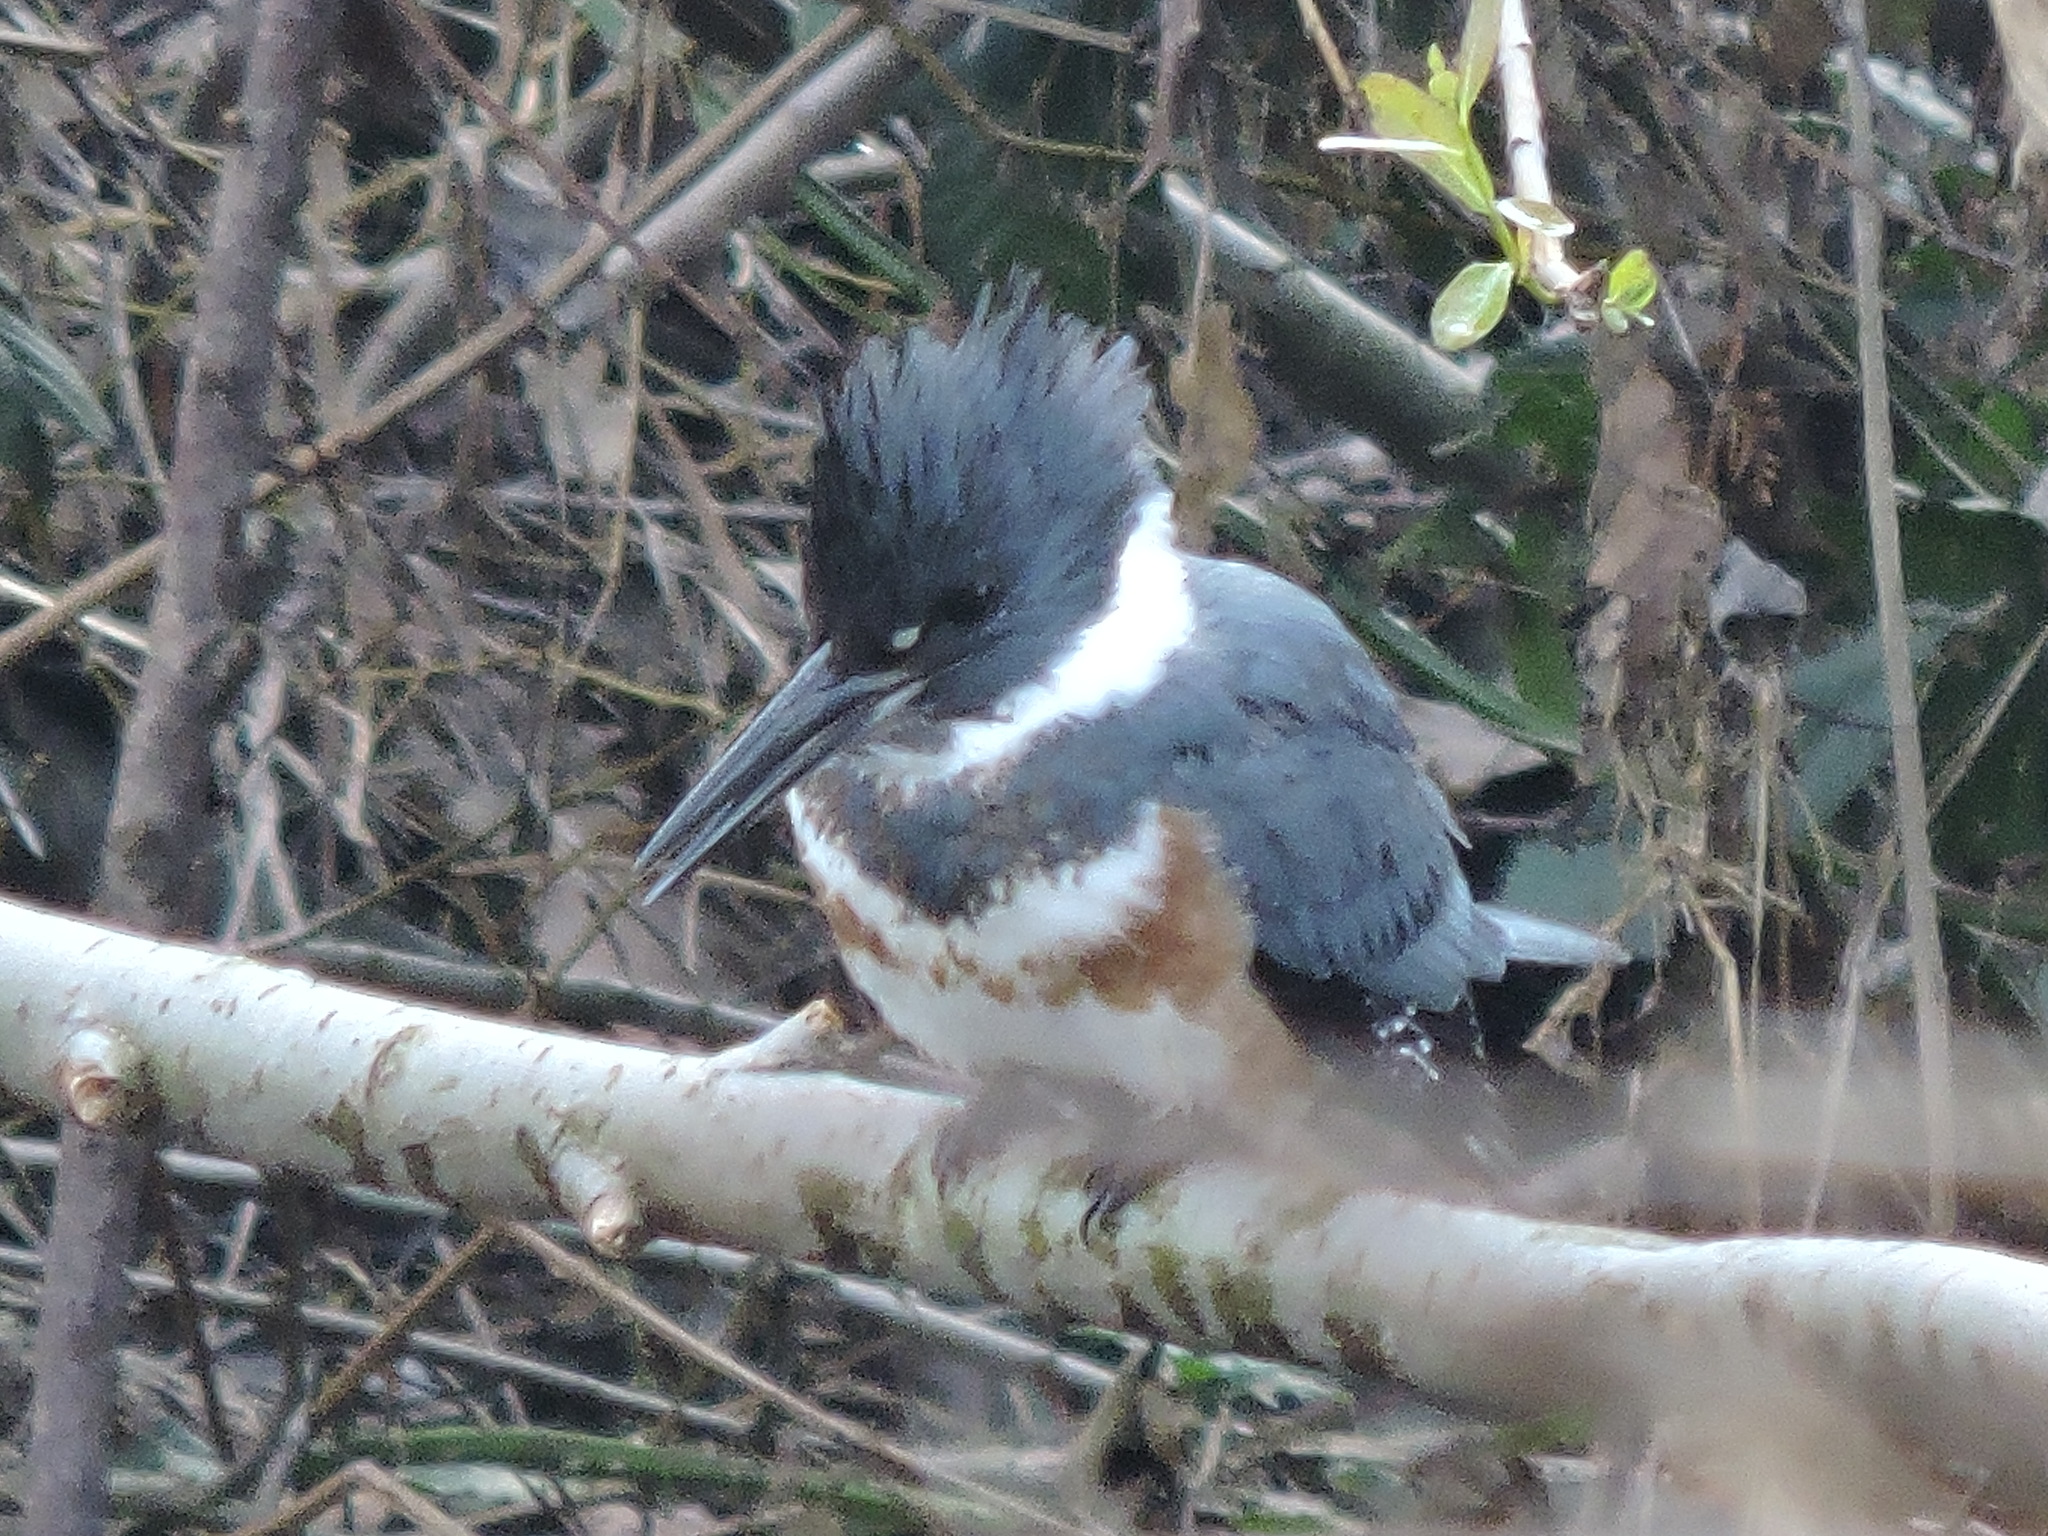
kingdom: Animalia
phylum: Chordata
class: Aves
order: Coraciiformes
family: Alcedinidae
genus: Megaceryle
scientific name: Megaceryle alcyon
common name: Belted kingfisher
